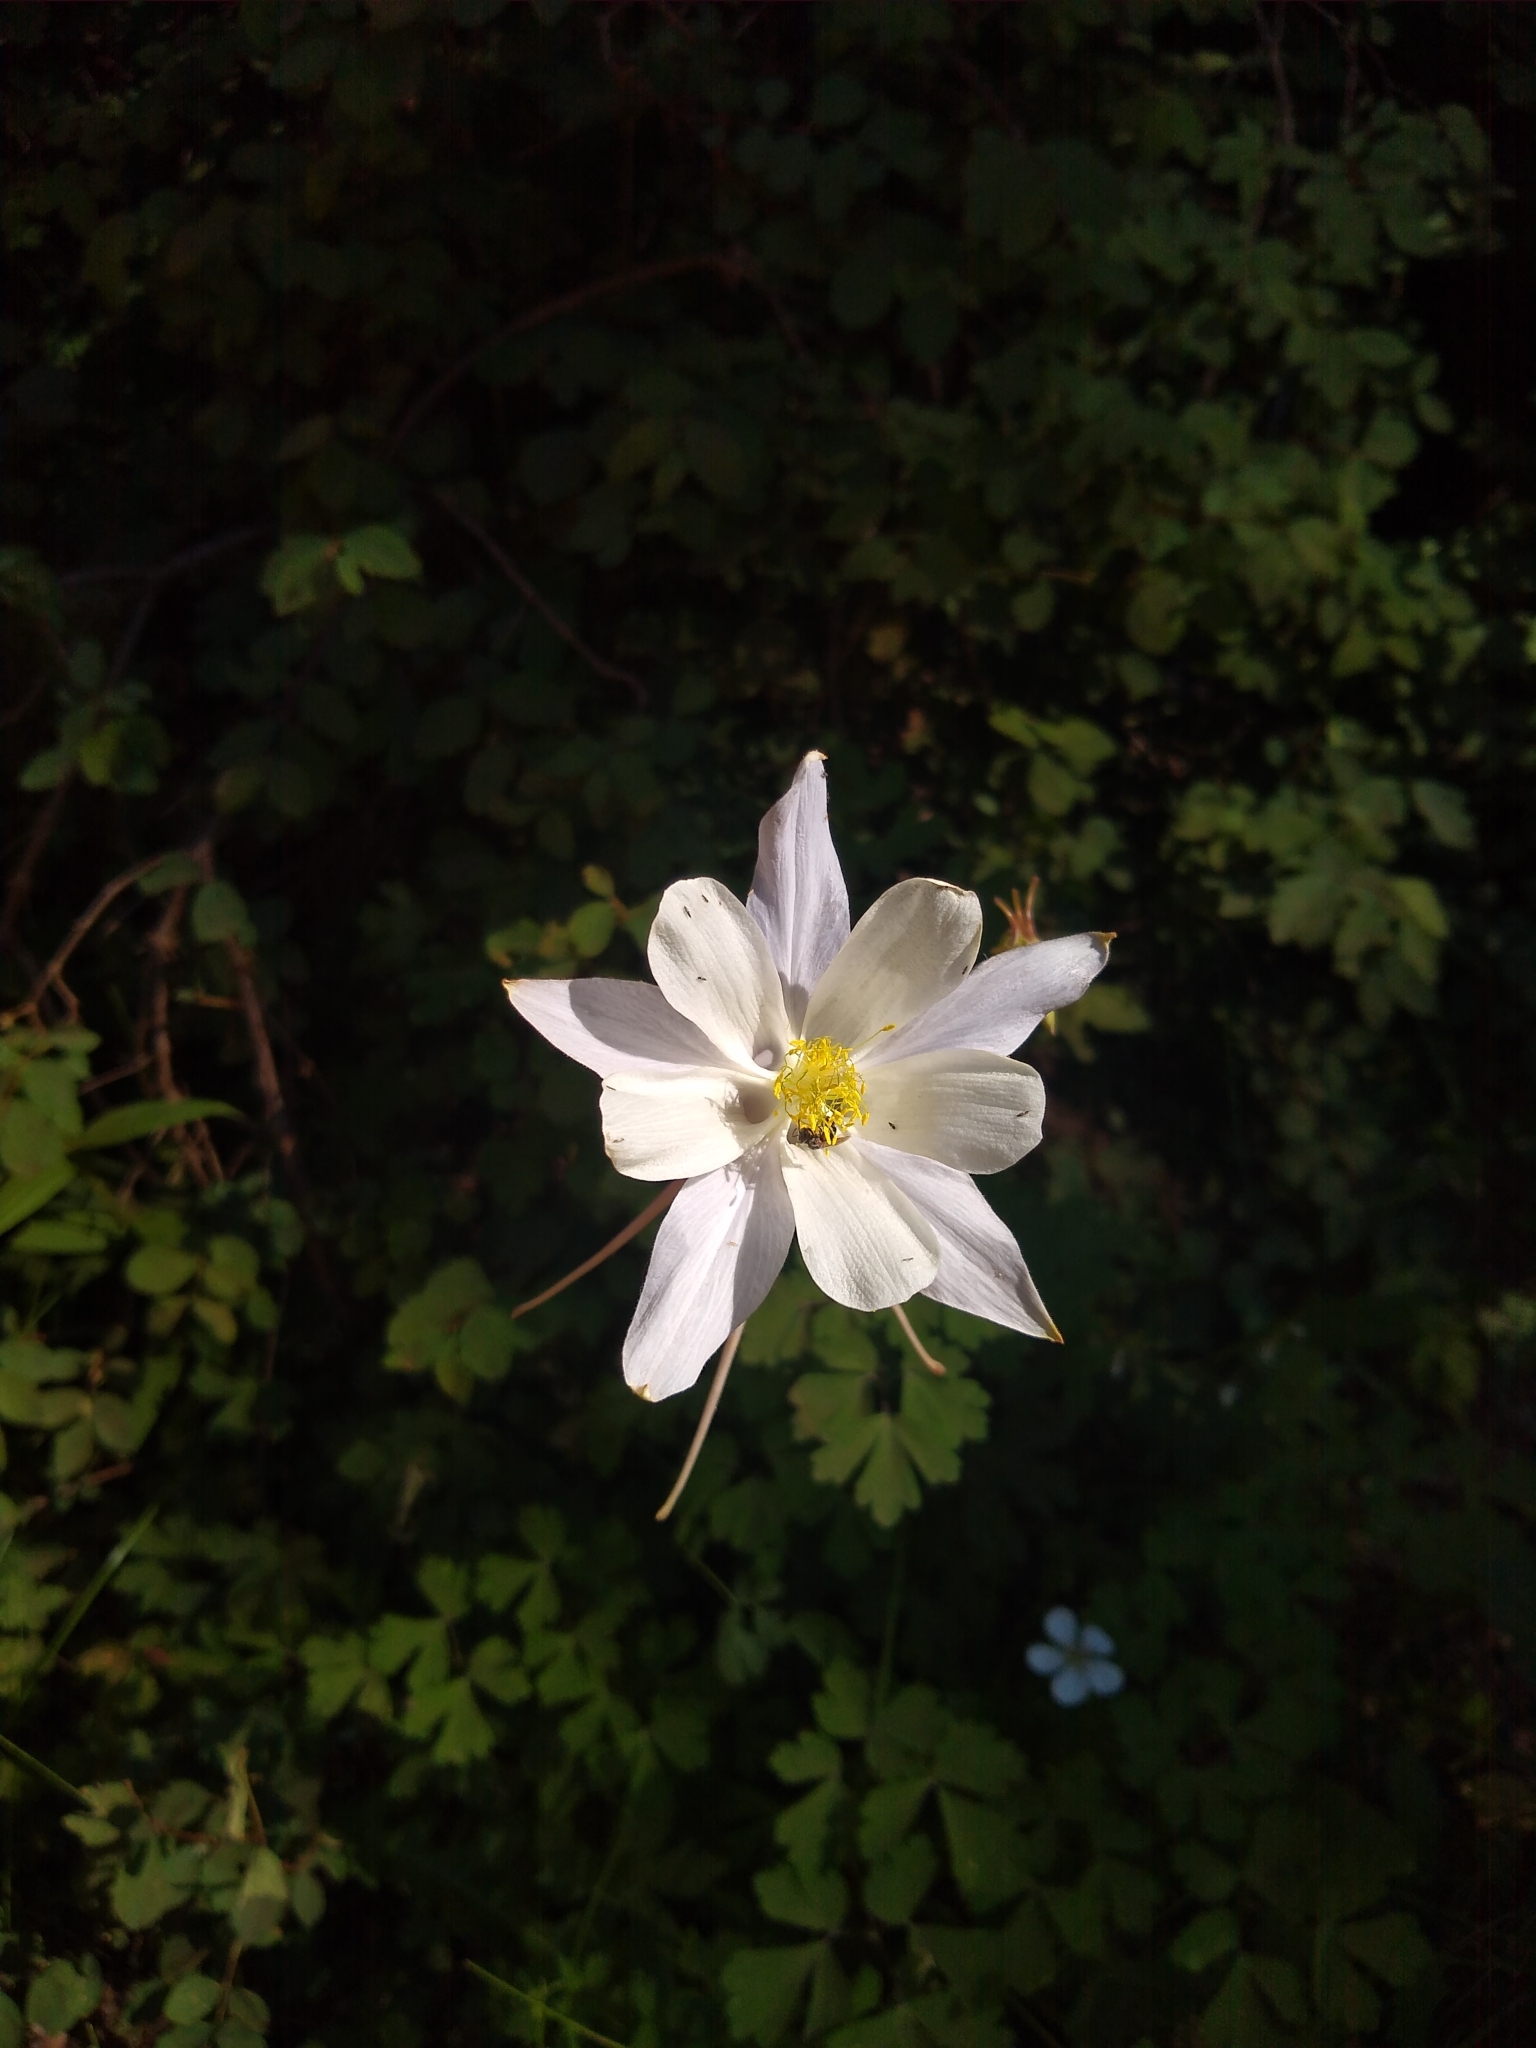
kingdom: Plantae
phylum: Tracheophyta
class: Magnoliopsida
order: Ranunculales
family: Ranunculaceae
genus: Aquilegia
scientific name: Aquilegia coerulea
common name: Rocky mountain columbine
